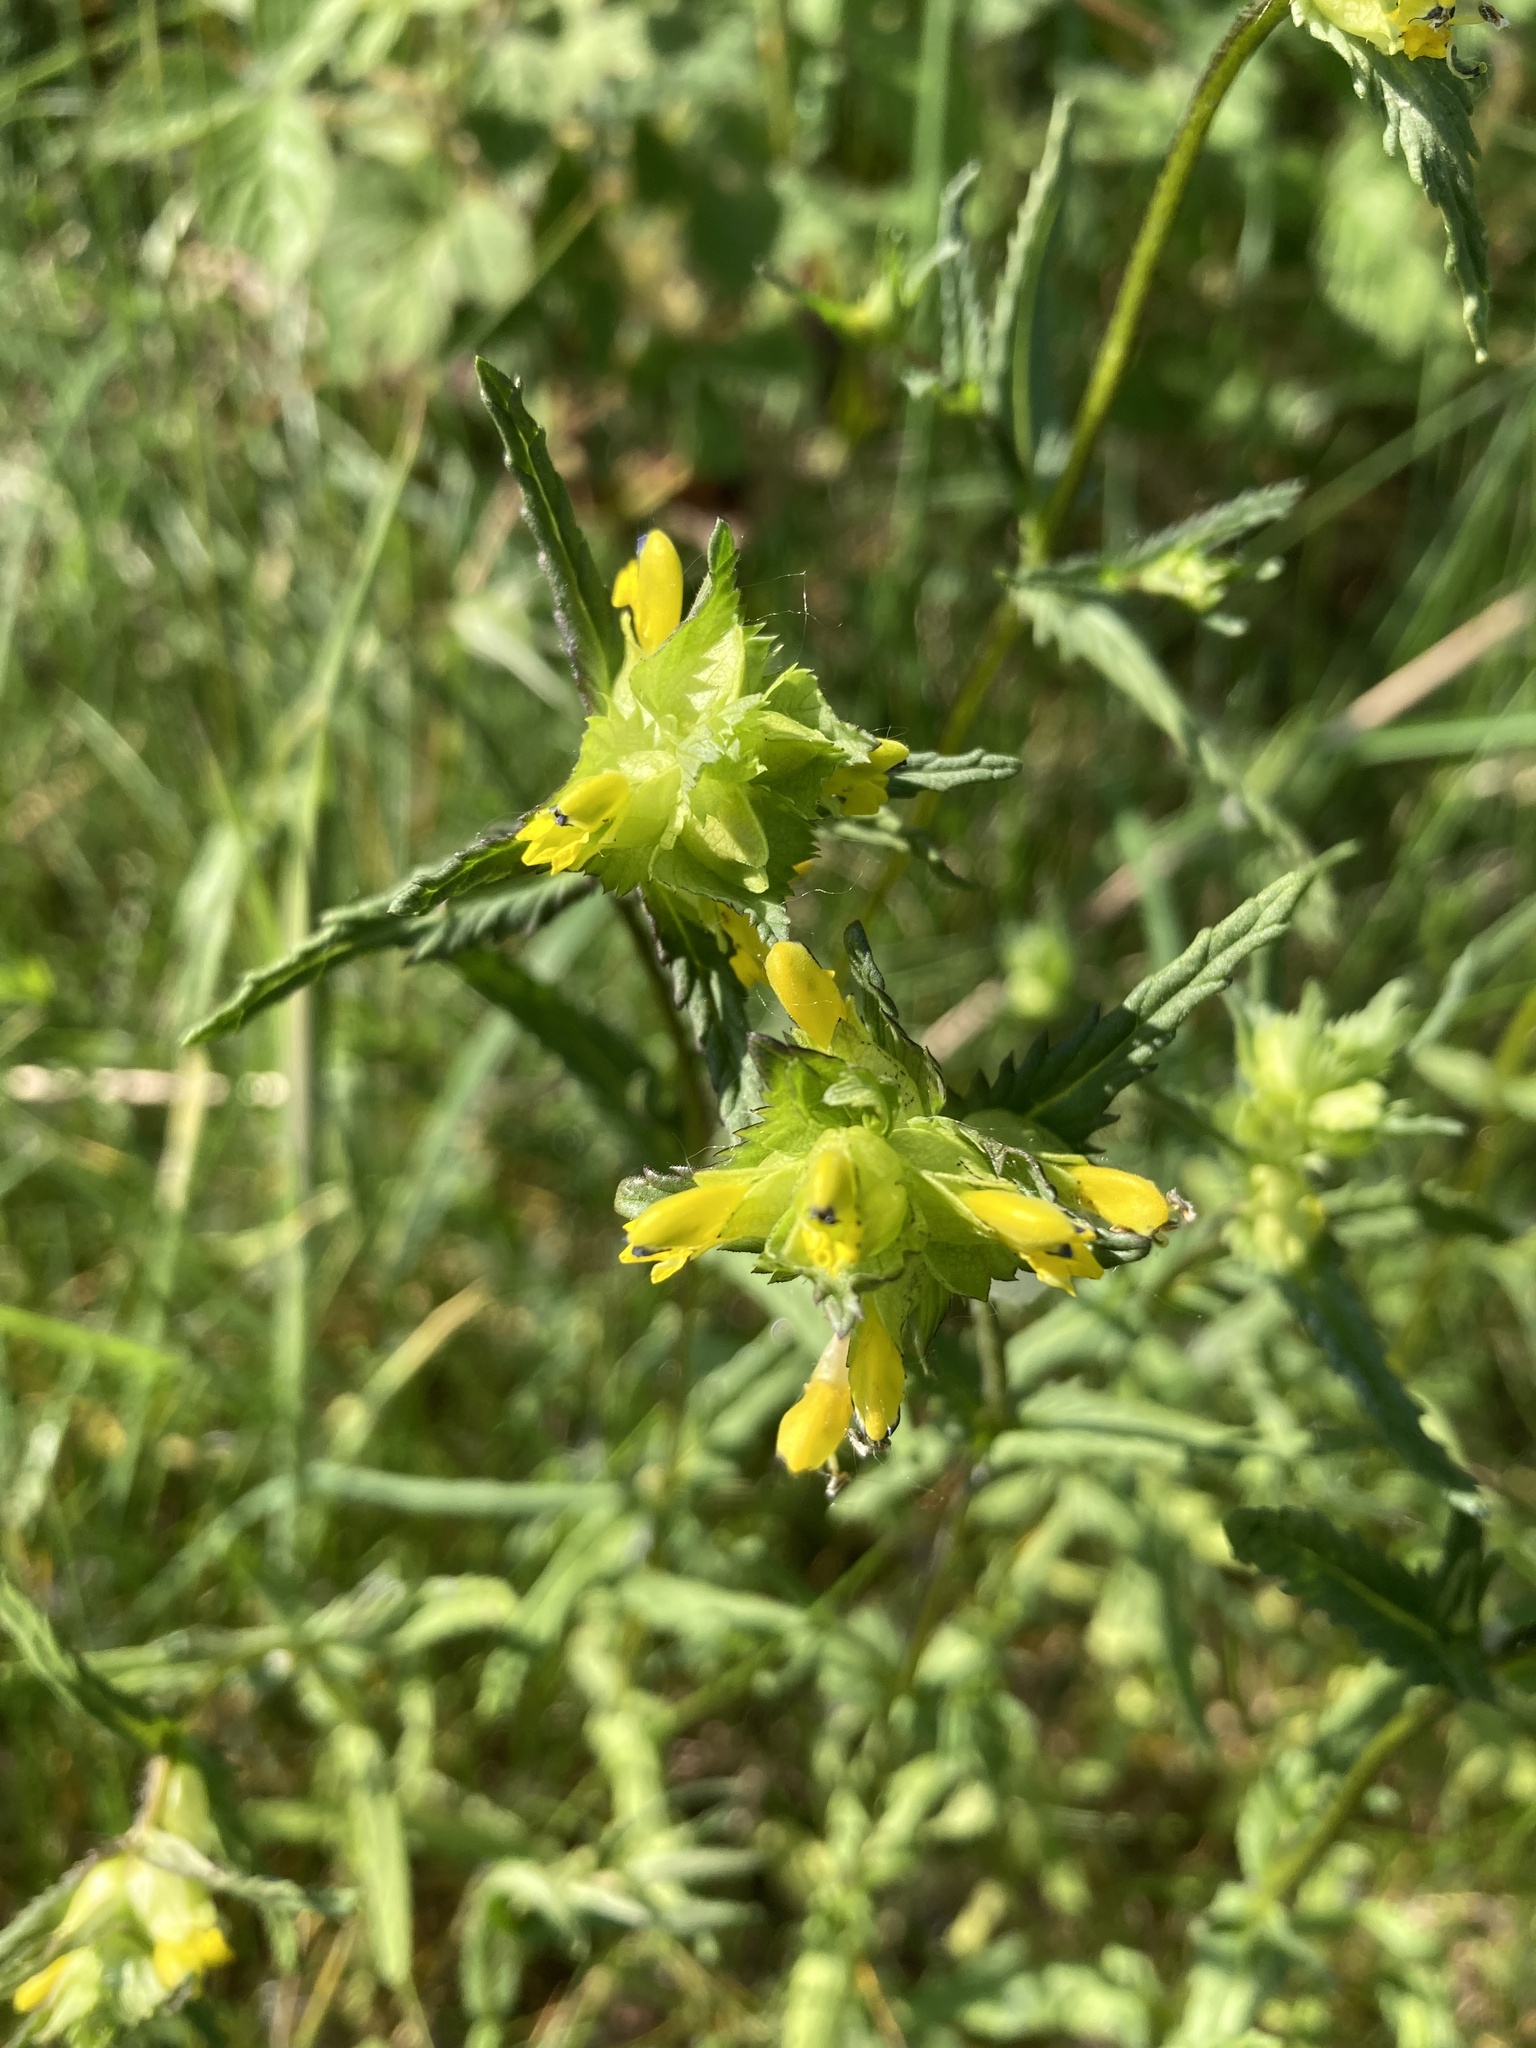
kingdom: Plantae
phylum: Tracheophyta
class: Magnoliopsida
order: Lamiales
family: Orobanchaceae
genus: Rhinanthus
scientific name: Rhinanthus minor
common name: Yellow-rattle
